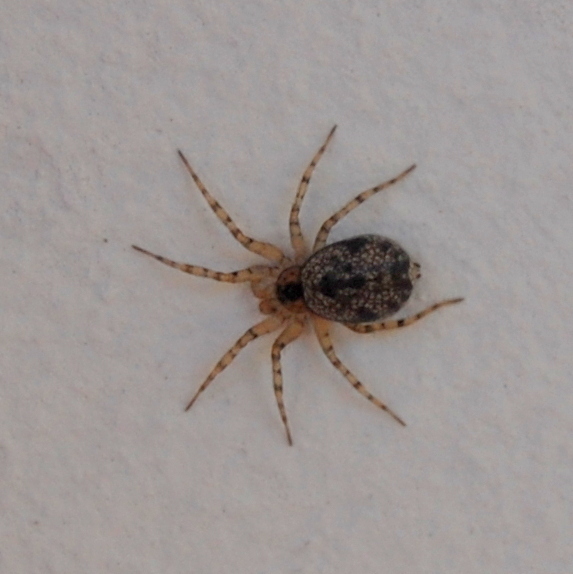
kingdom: Animalia
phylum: Arthropoda
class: Arachnida
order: Araneae
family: Oecobiidae
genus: Oecobius
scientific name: Oecobius navus
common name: Flatmesh weaver
